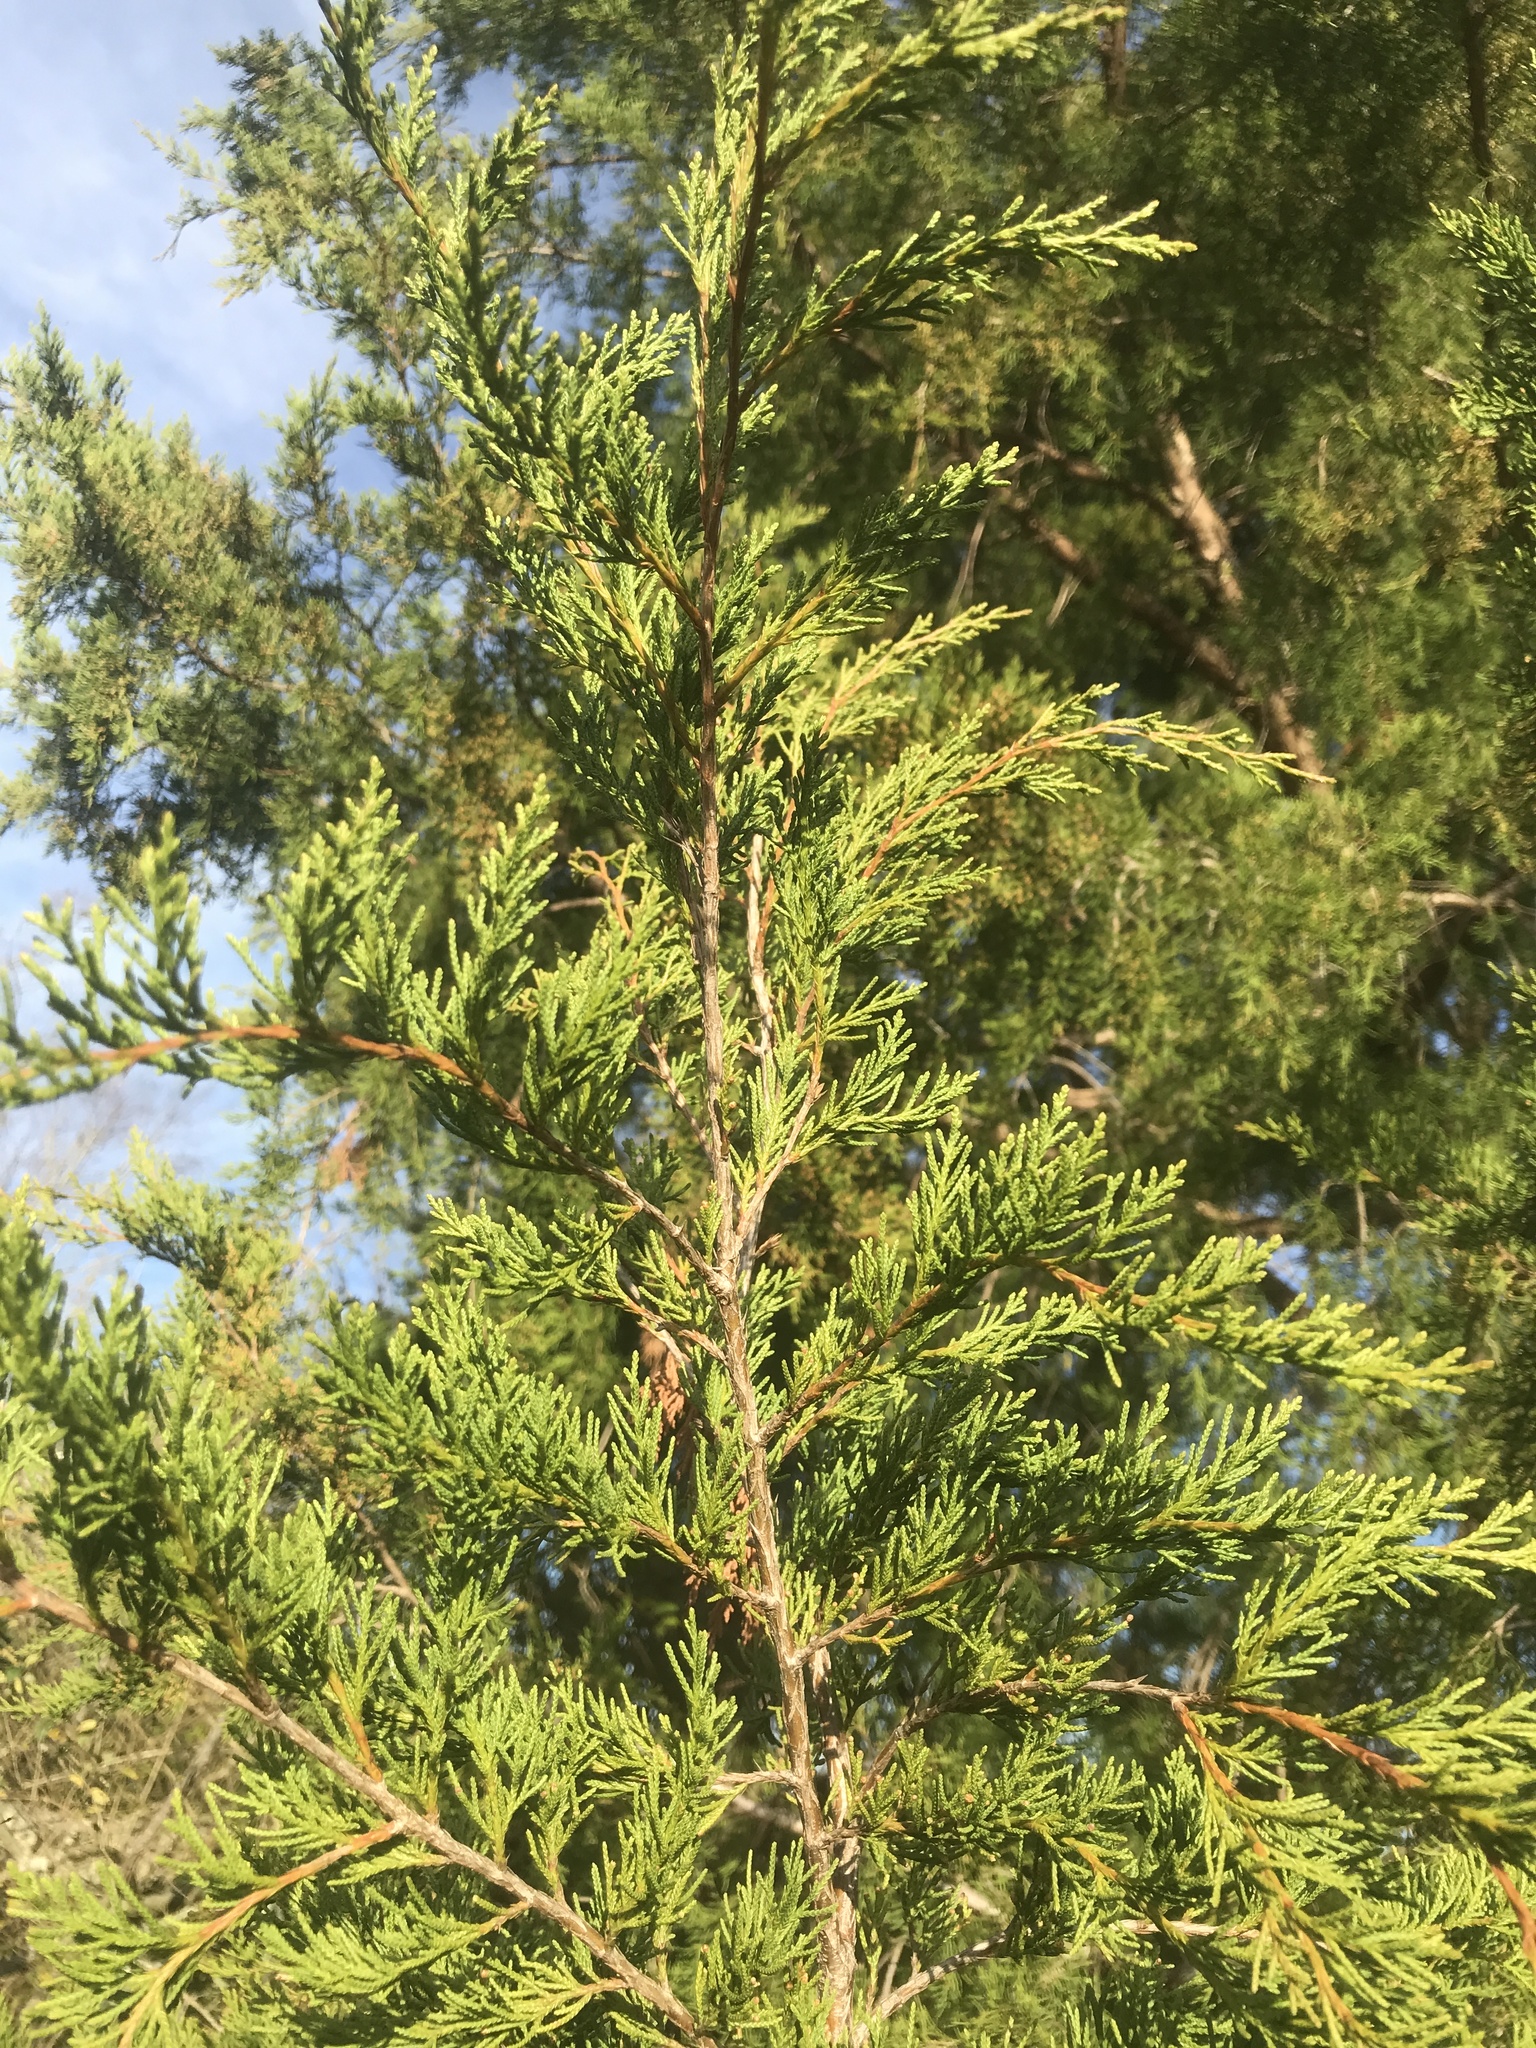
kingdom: Plantae
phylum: Tracheophyta
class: Pinopsida
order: Pinales
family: Cupressaceae
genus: Juniperus
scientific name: Juniperus virginiana
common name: Red juniper
